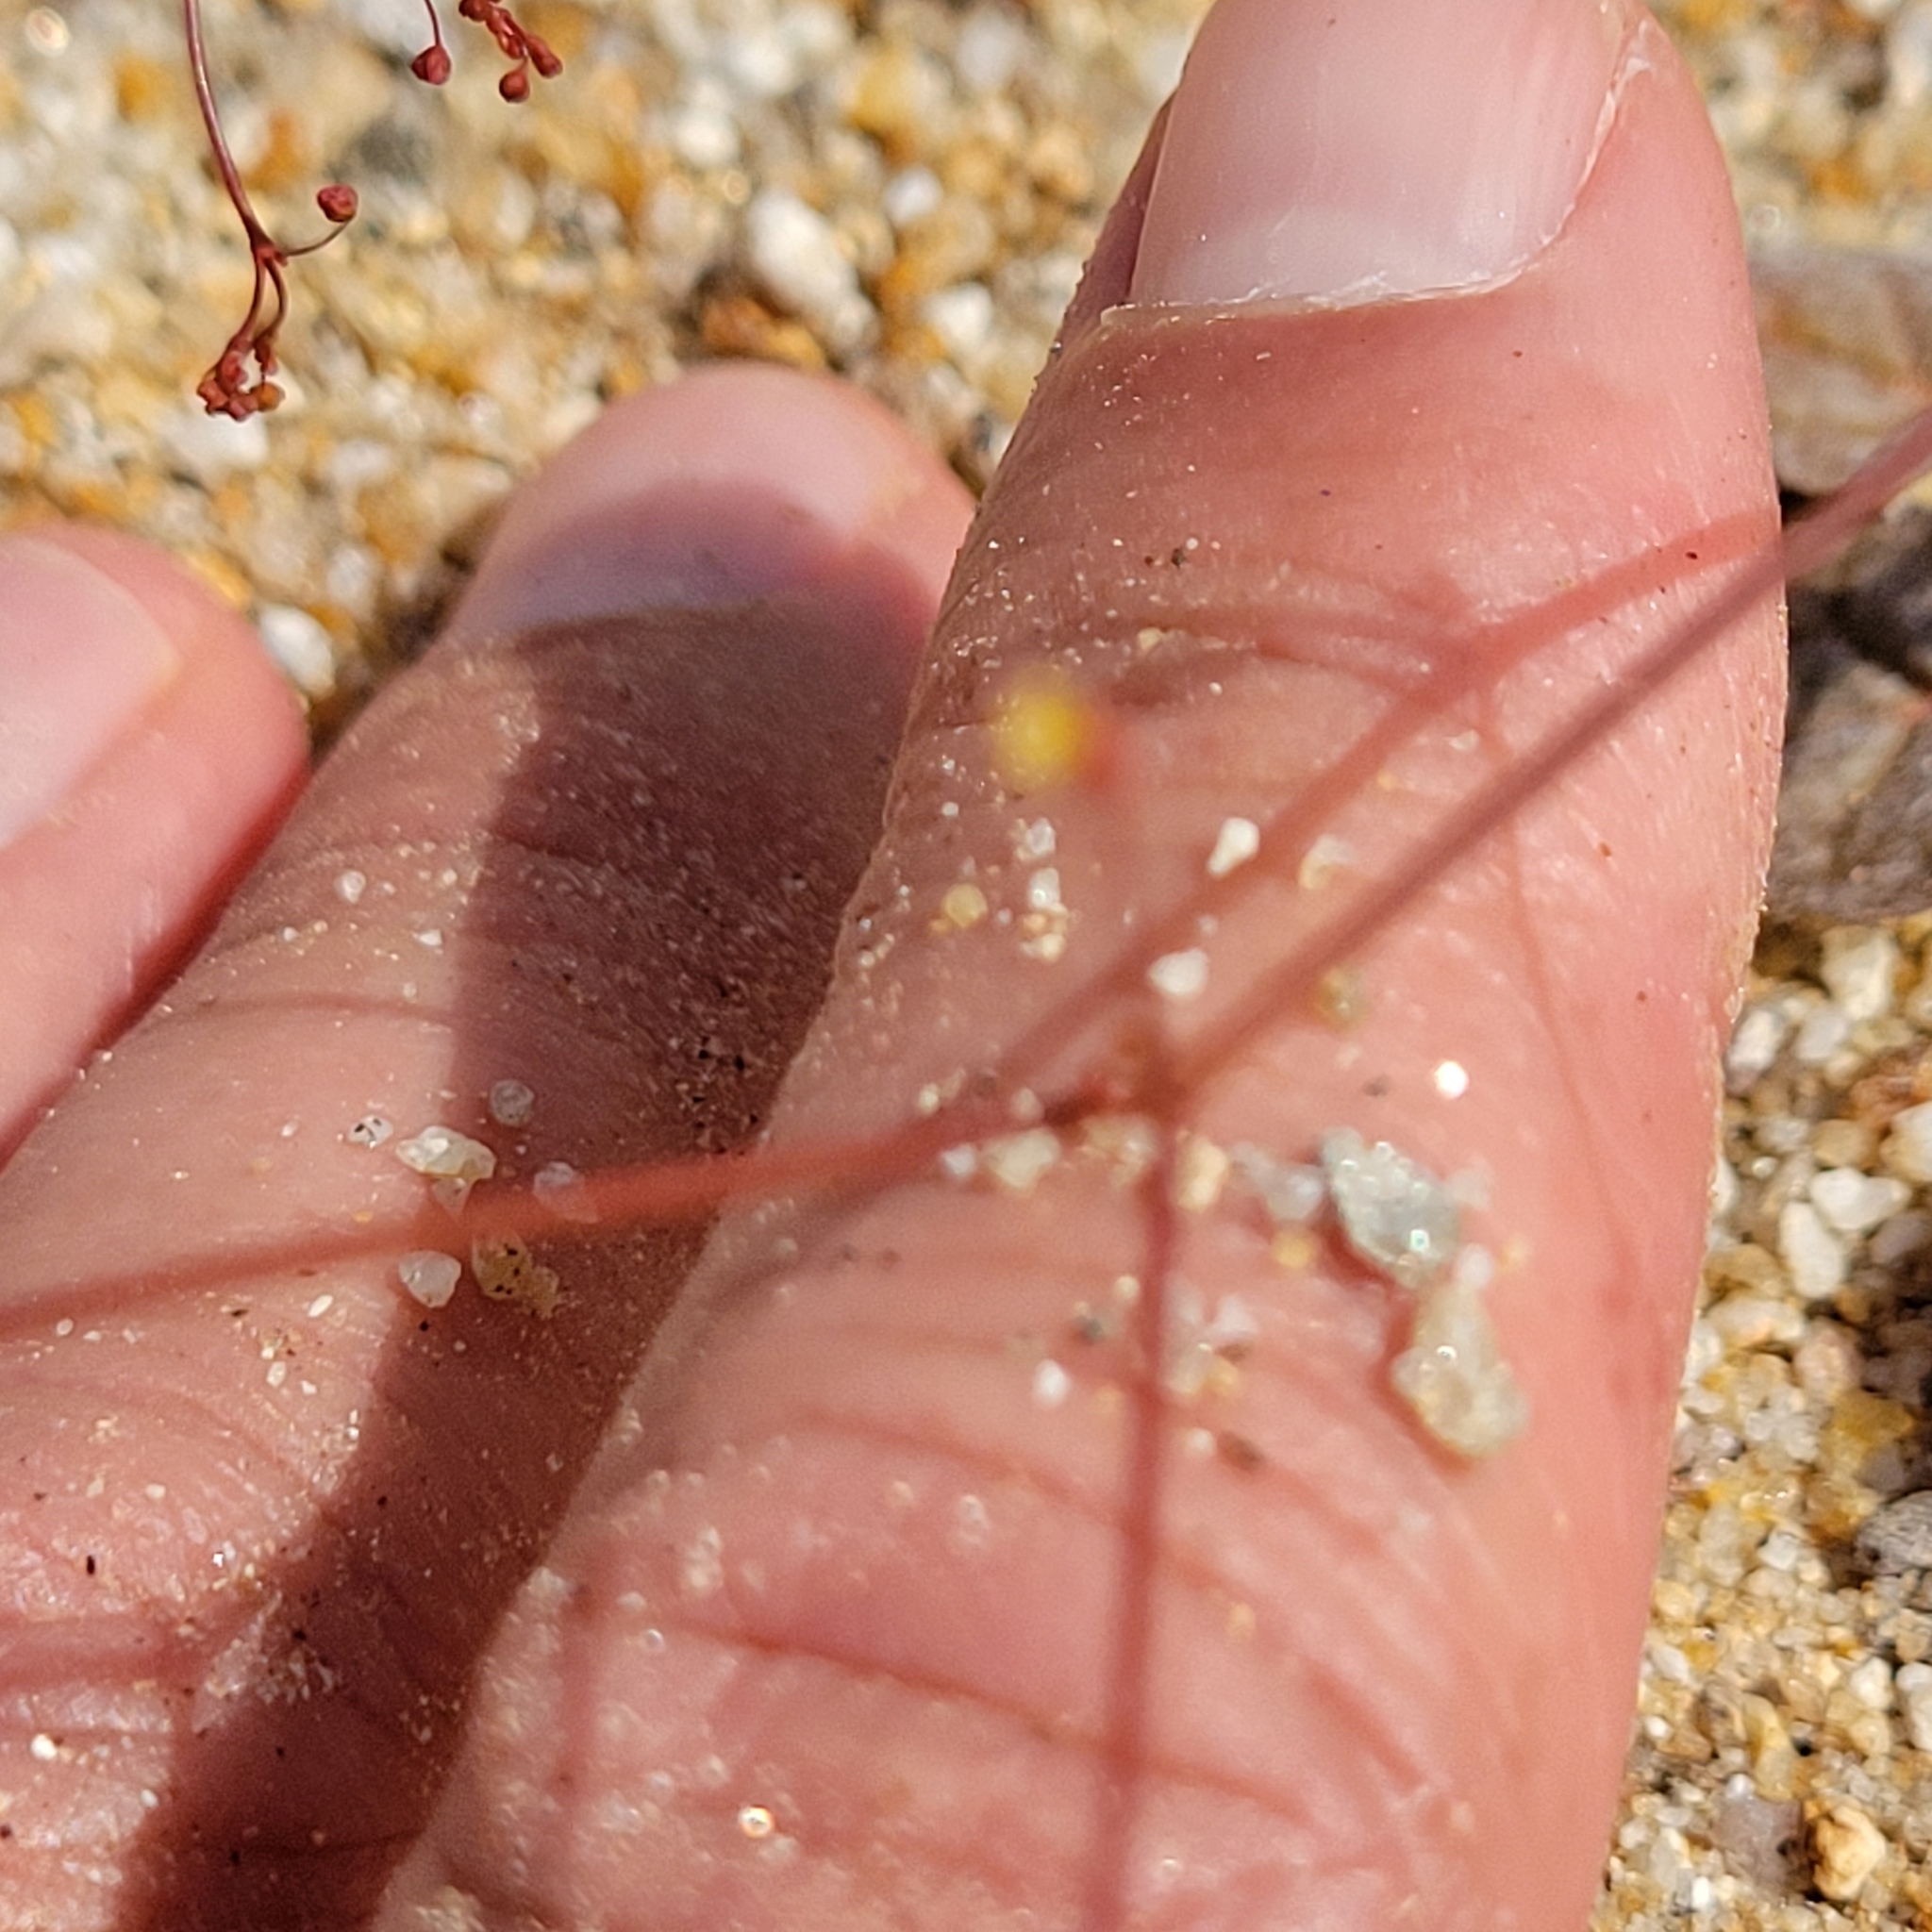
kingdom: Plantae
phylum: Tracheophyta
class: Magnoliopsida
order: Caryophyllales
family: Polygonaceae
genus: Eriogonum
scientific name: Eriogonum thomasii
